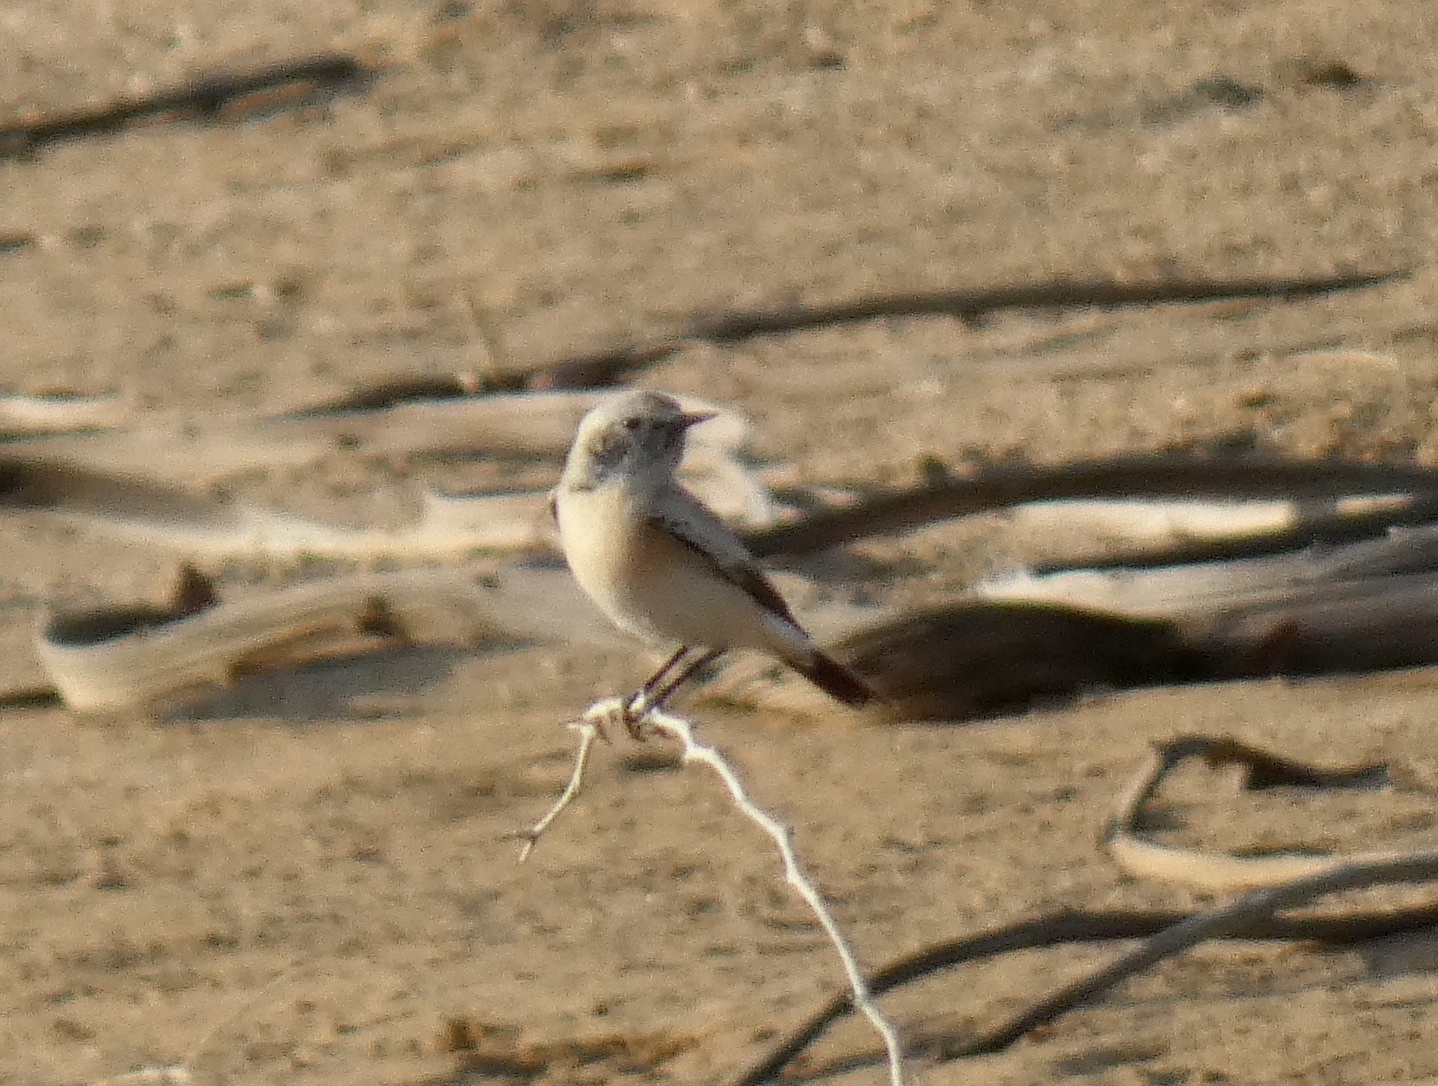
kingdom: Animalia
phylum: Chordata
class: Aves
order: Passeriformes
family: Muscicapidae
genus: Oenanthe
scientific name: Oenanthe deserti
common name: Desert wheatear
